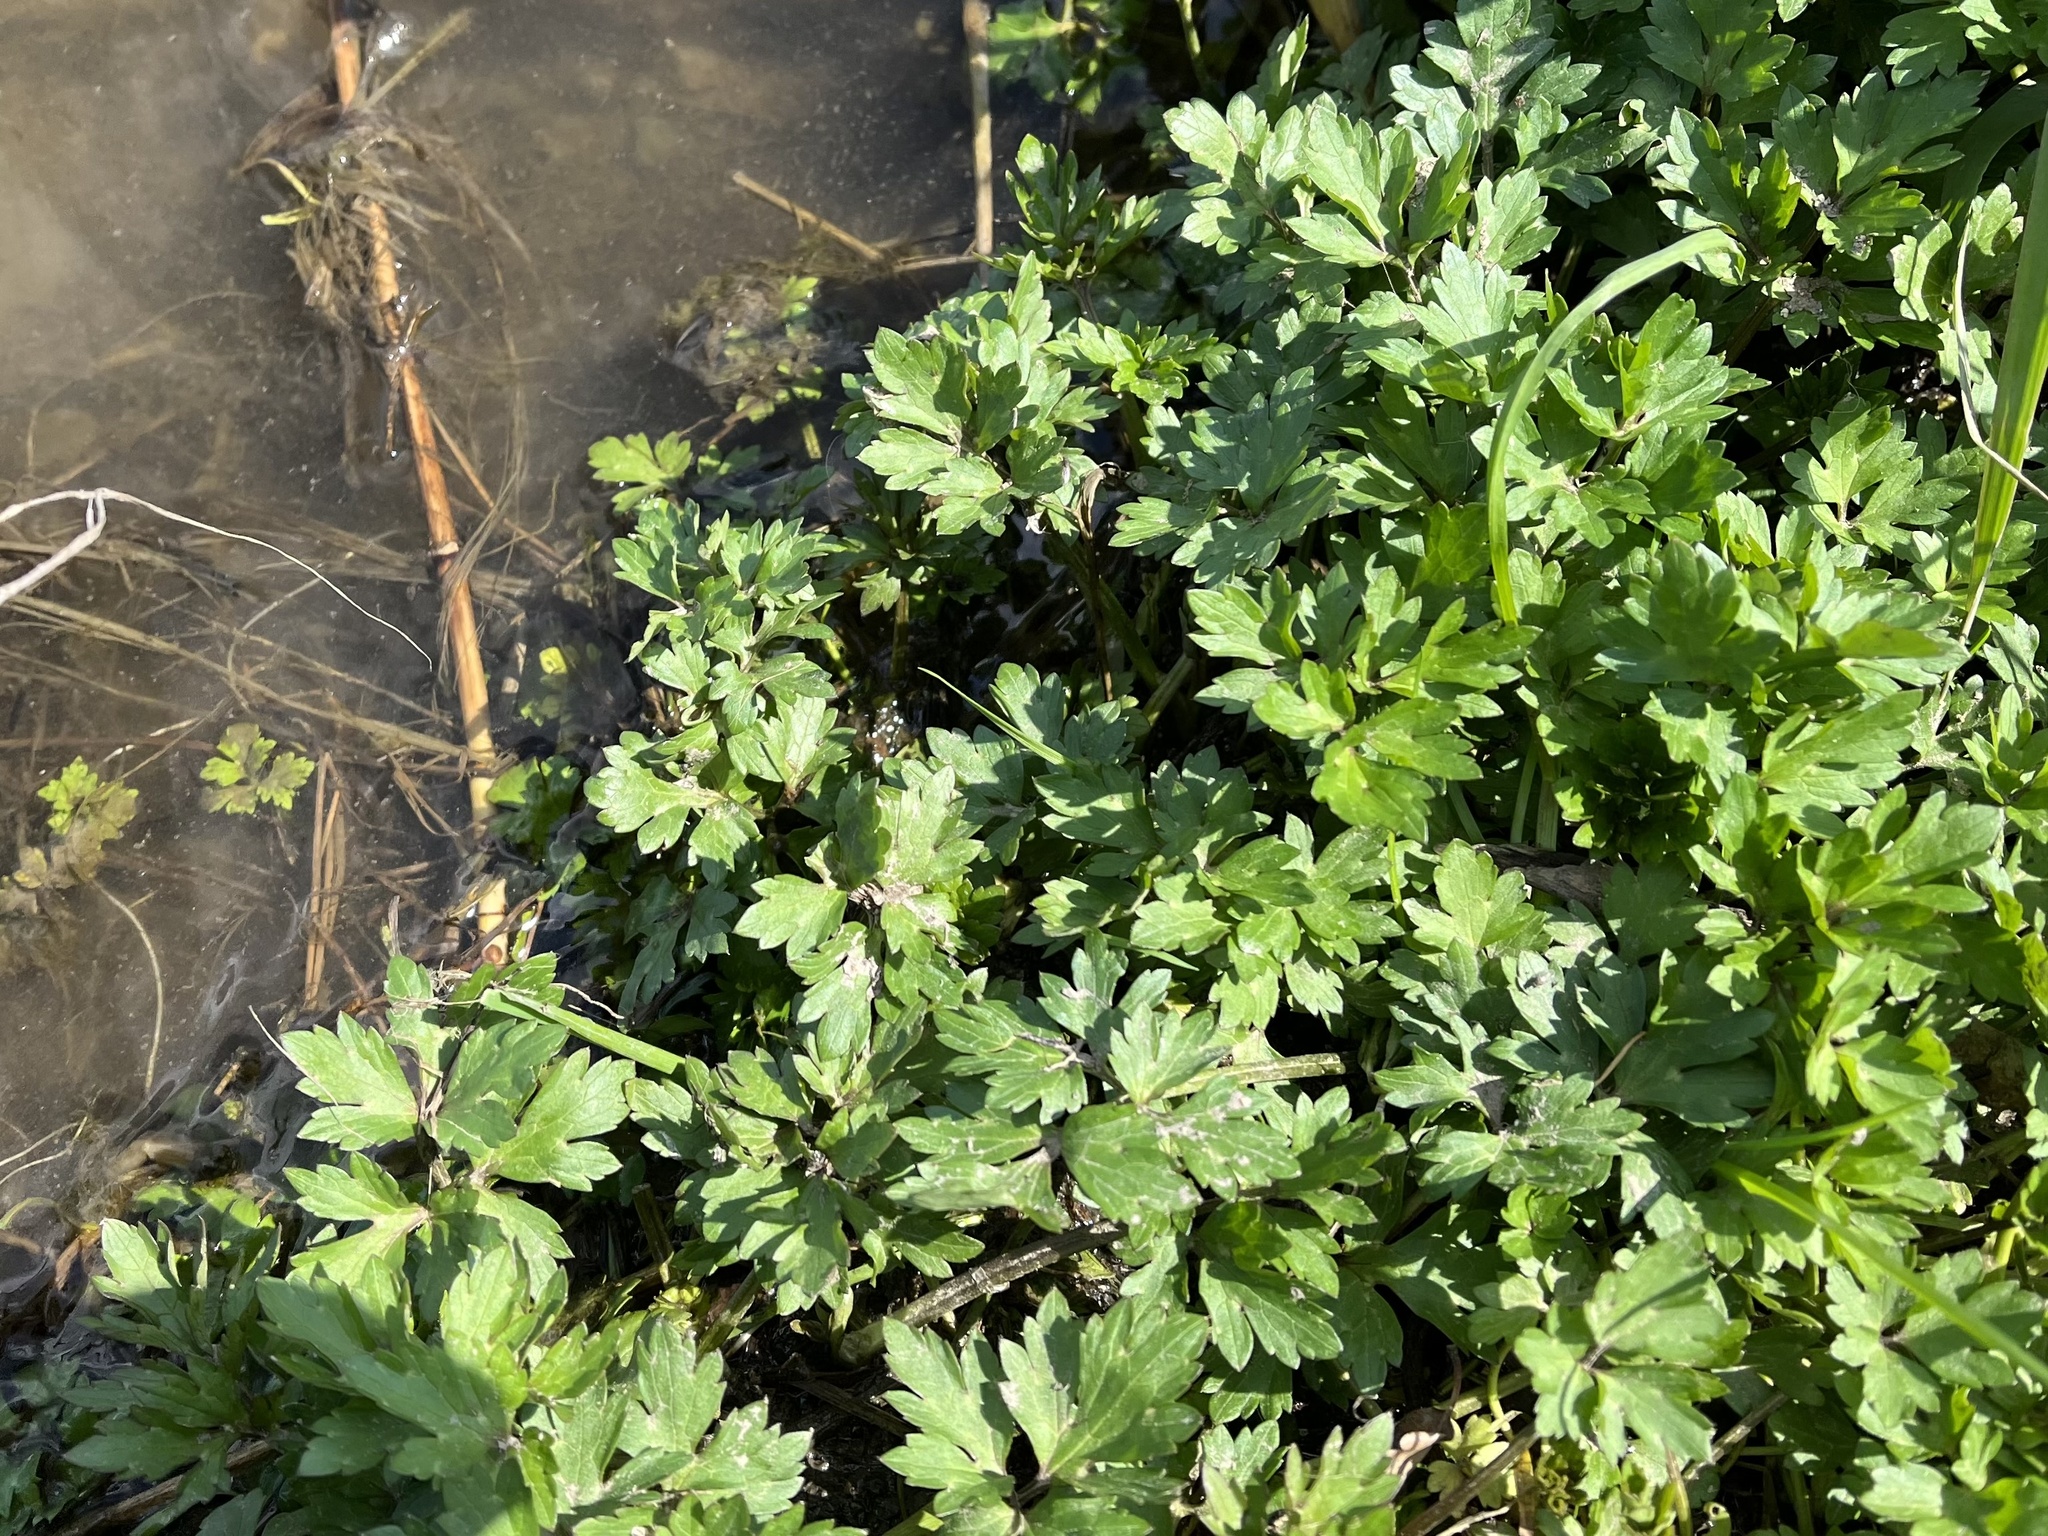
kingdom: Plantae
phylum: Tracheophyta
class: Magnoliopsida
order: Ranunculales
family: Ranunculaceae
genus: Ranunculus
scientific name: Ranunculus repens
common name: Creeping buttercup
